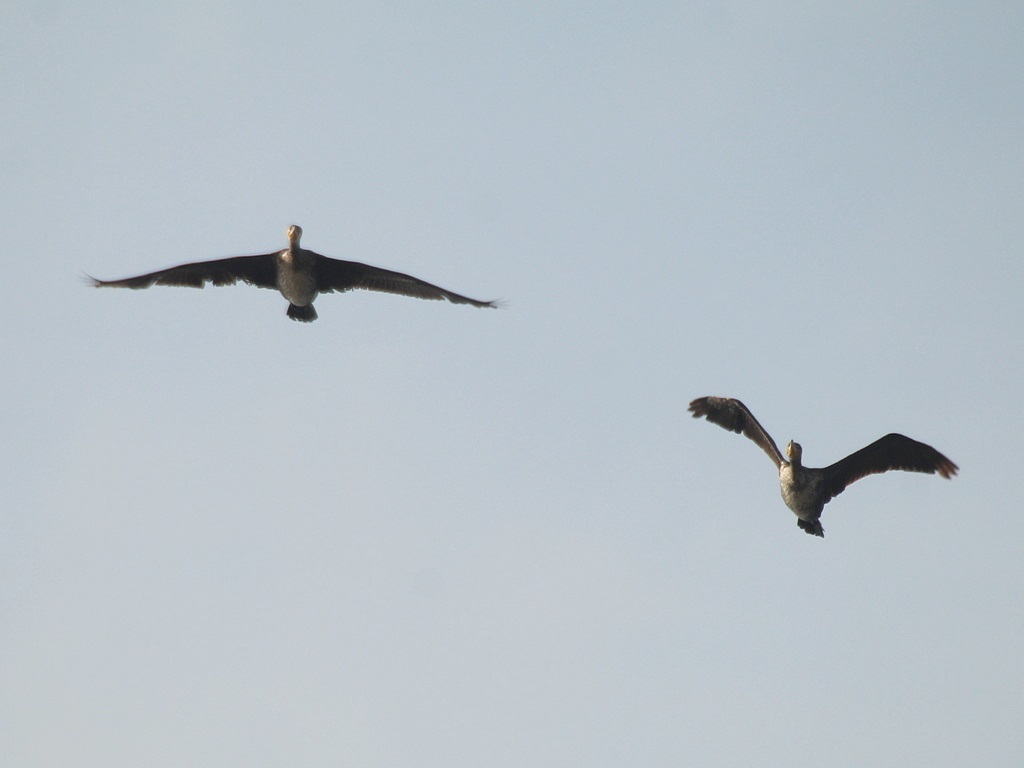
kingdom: Animalia
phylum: Chordata
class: Aves
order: Suliformes
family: Phalacrocoracidae
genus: Phalacrocorax
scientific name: Phalacrocorax carbo
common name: Great cormorant
